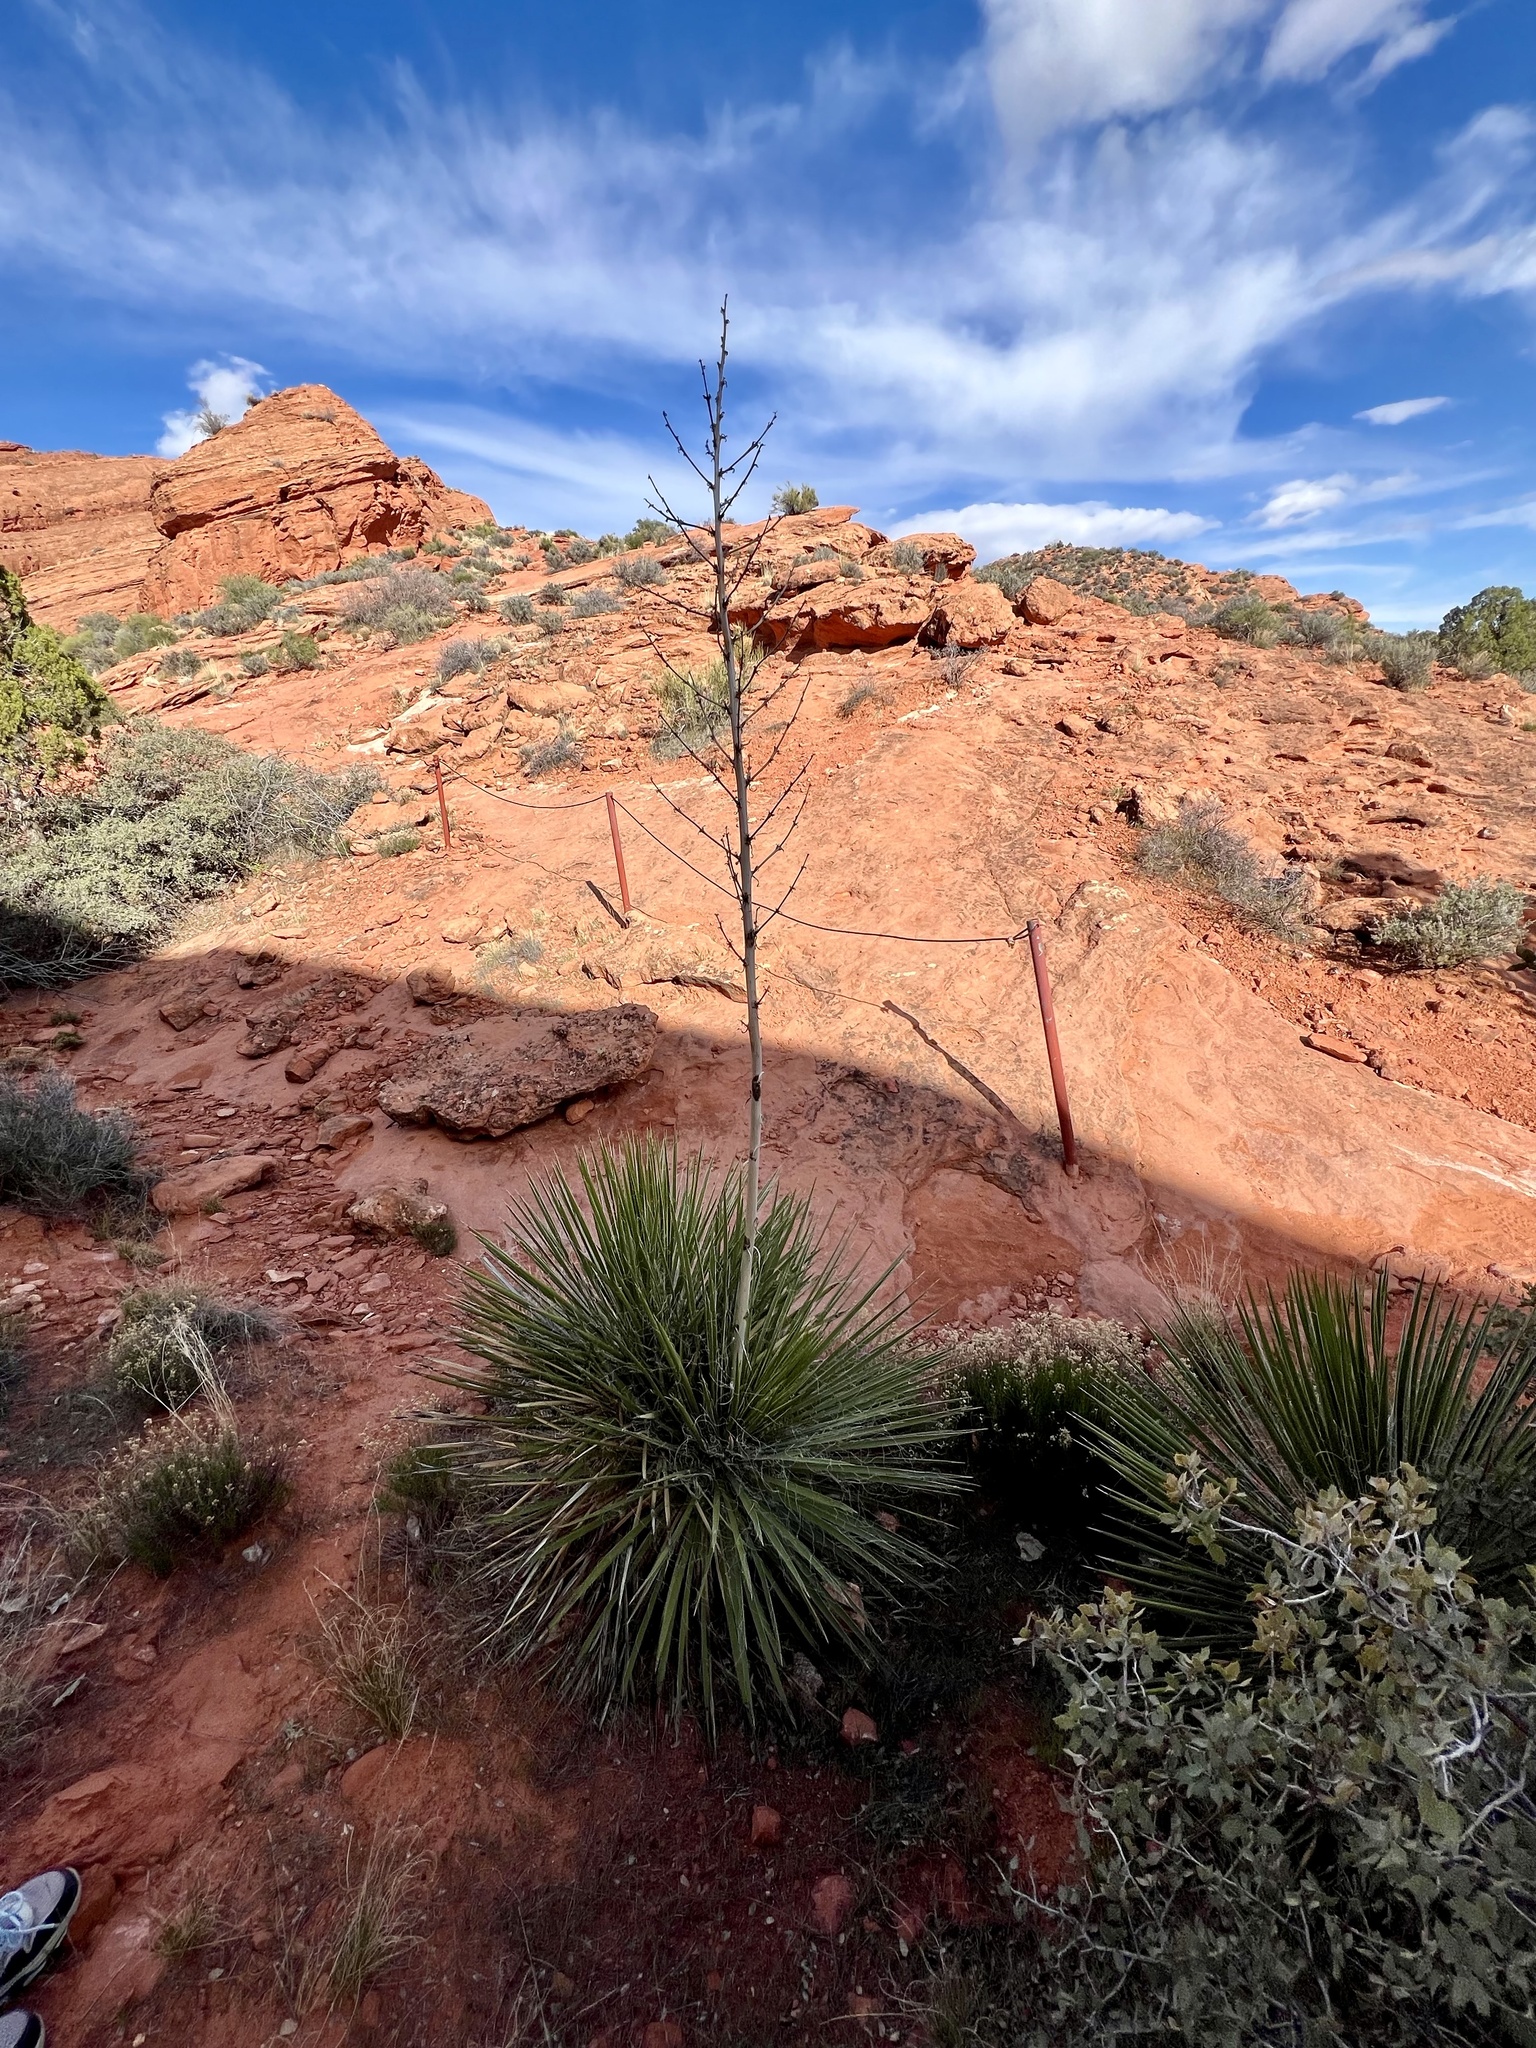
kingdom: Plantae
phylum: Tracheophyta
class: Liliopsida
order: Asparagales
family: Asparagaceae
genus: Yucca
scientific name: Yucca utahensis
